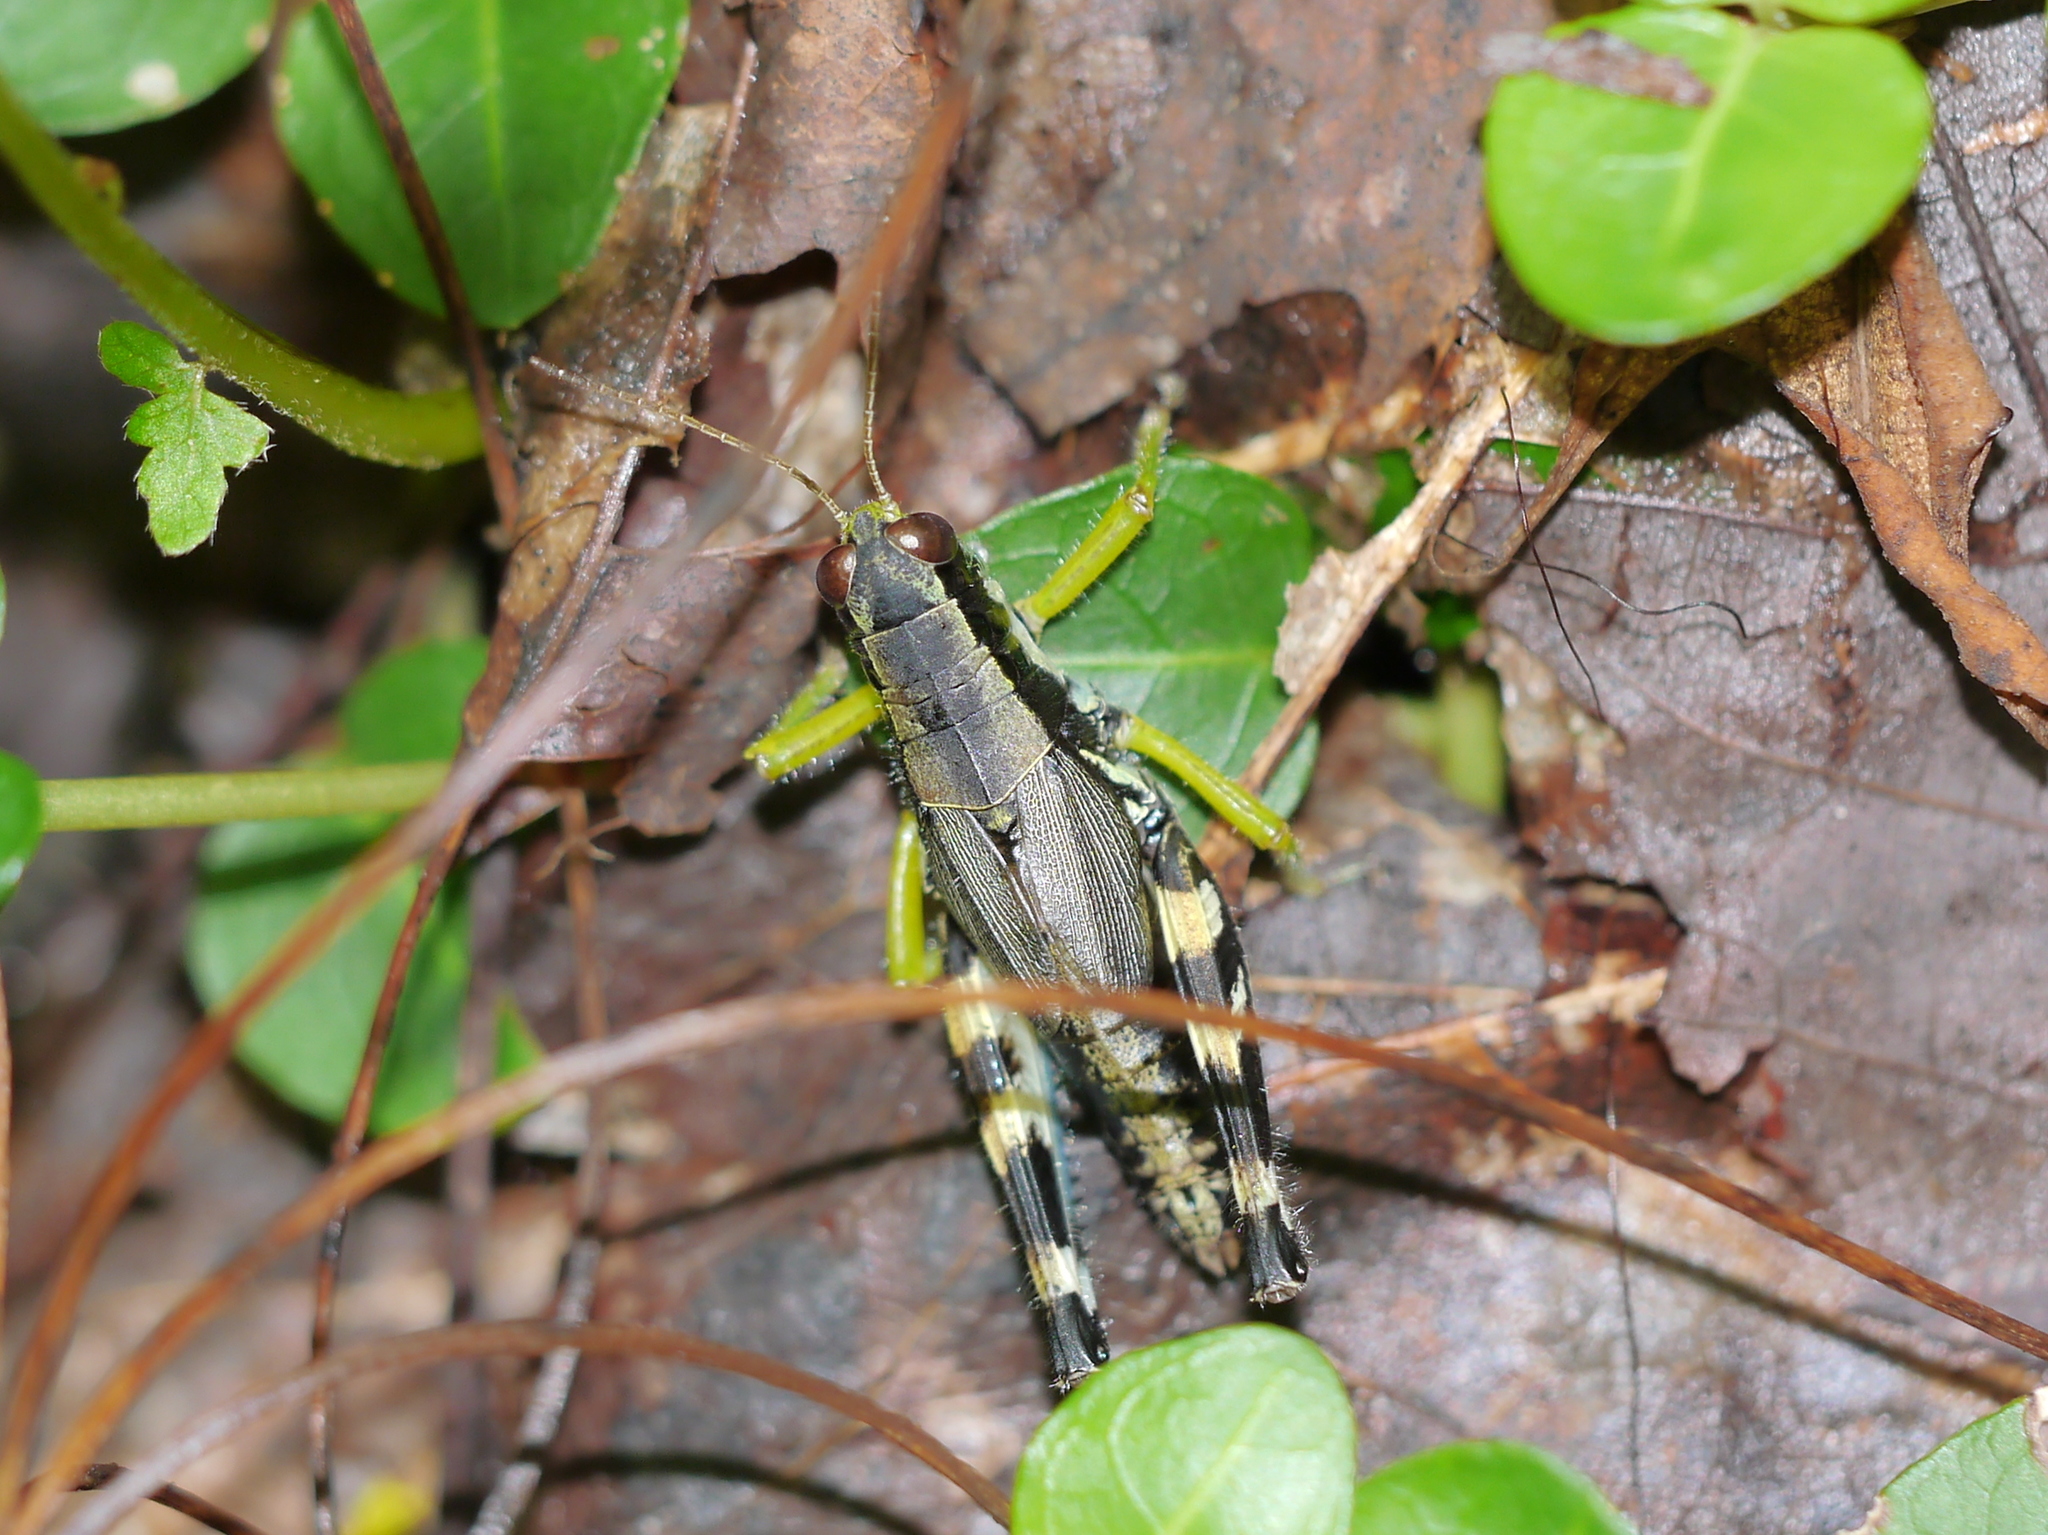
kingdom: Animalia
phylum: Arthropoda
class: Insecta
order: Orthoptera
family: Acrididae
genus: Melanoplus
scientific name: Melanoplus viridipes
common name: Green-legged locust
